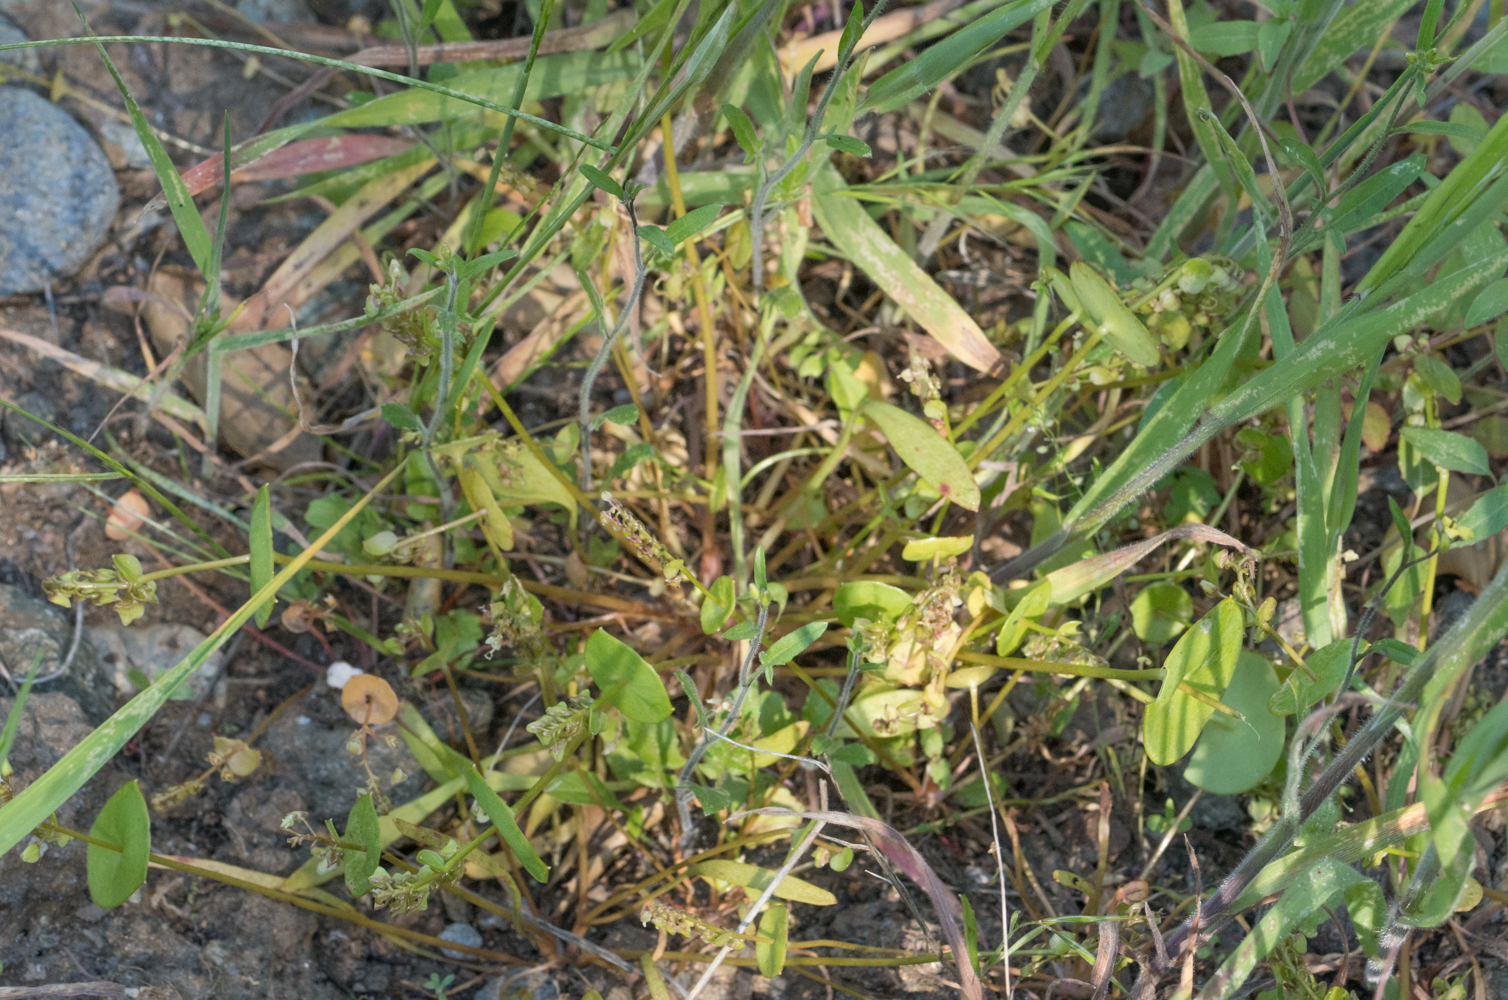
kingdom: Plantae
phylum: Tracheophyta
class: Magnoliopsida
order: Caryophyllales
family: Montiaceae
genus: Claytonia
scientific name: Claytonia perfoliata
